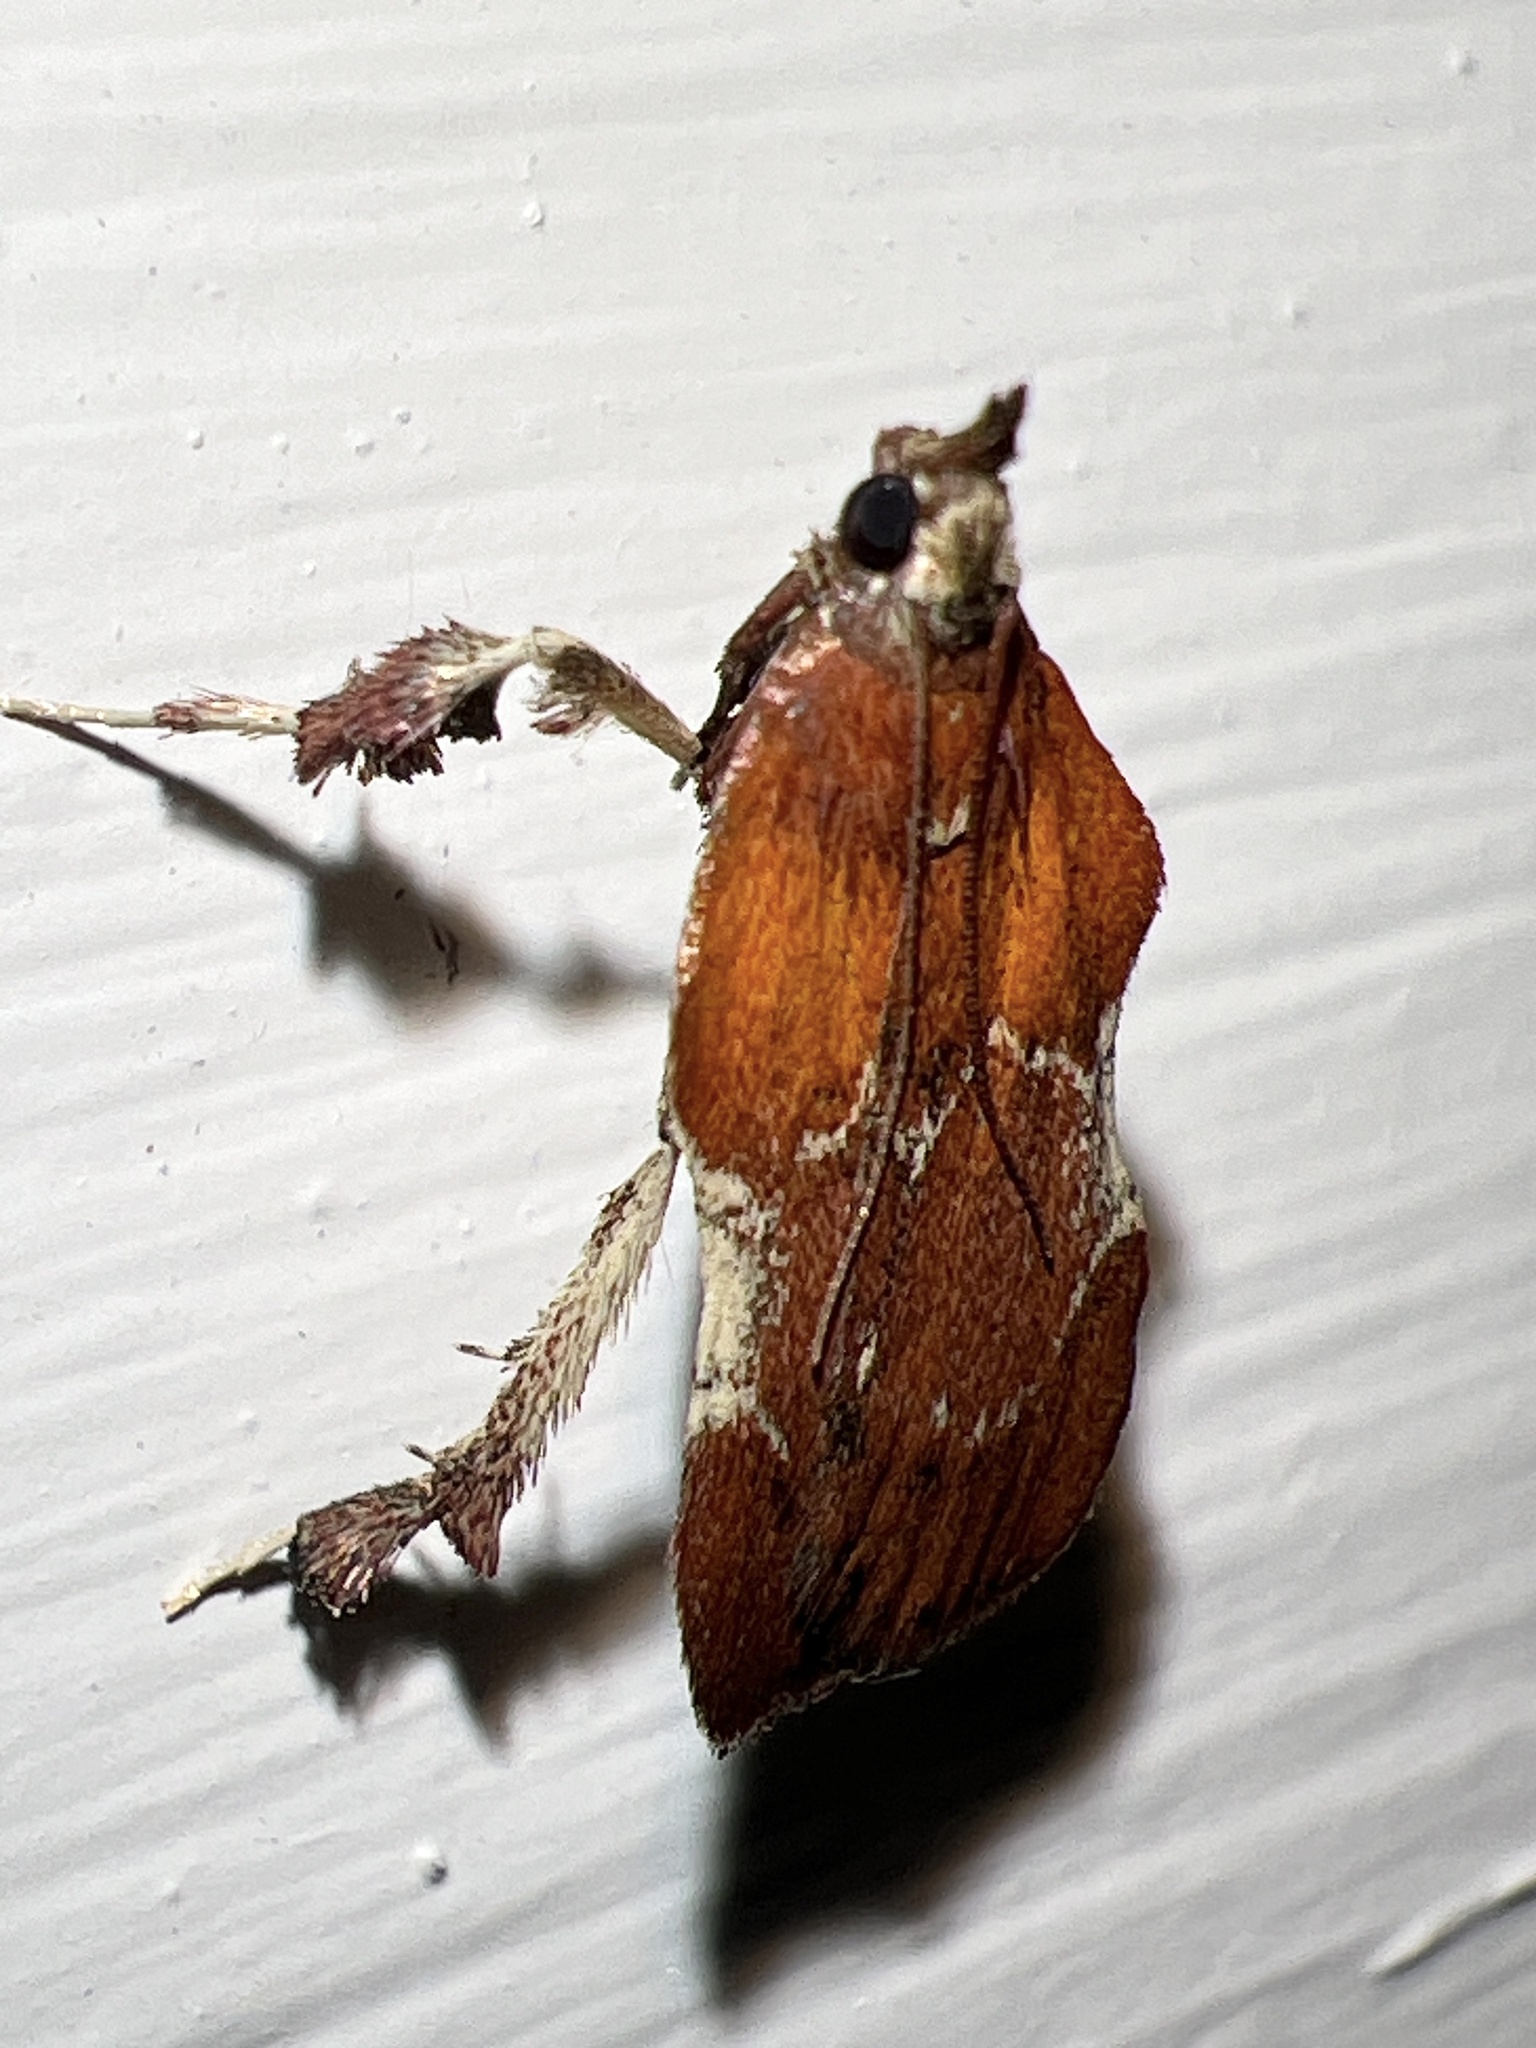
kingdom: Animalia
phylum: Arthropoda
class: Insecta
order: Lepidoptera
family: Pyralidae
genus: Galasa
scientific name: Galasa nigrinodis
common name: Boxwood leaftier moth
